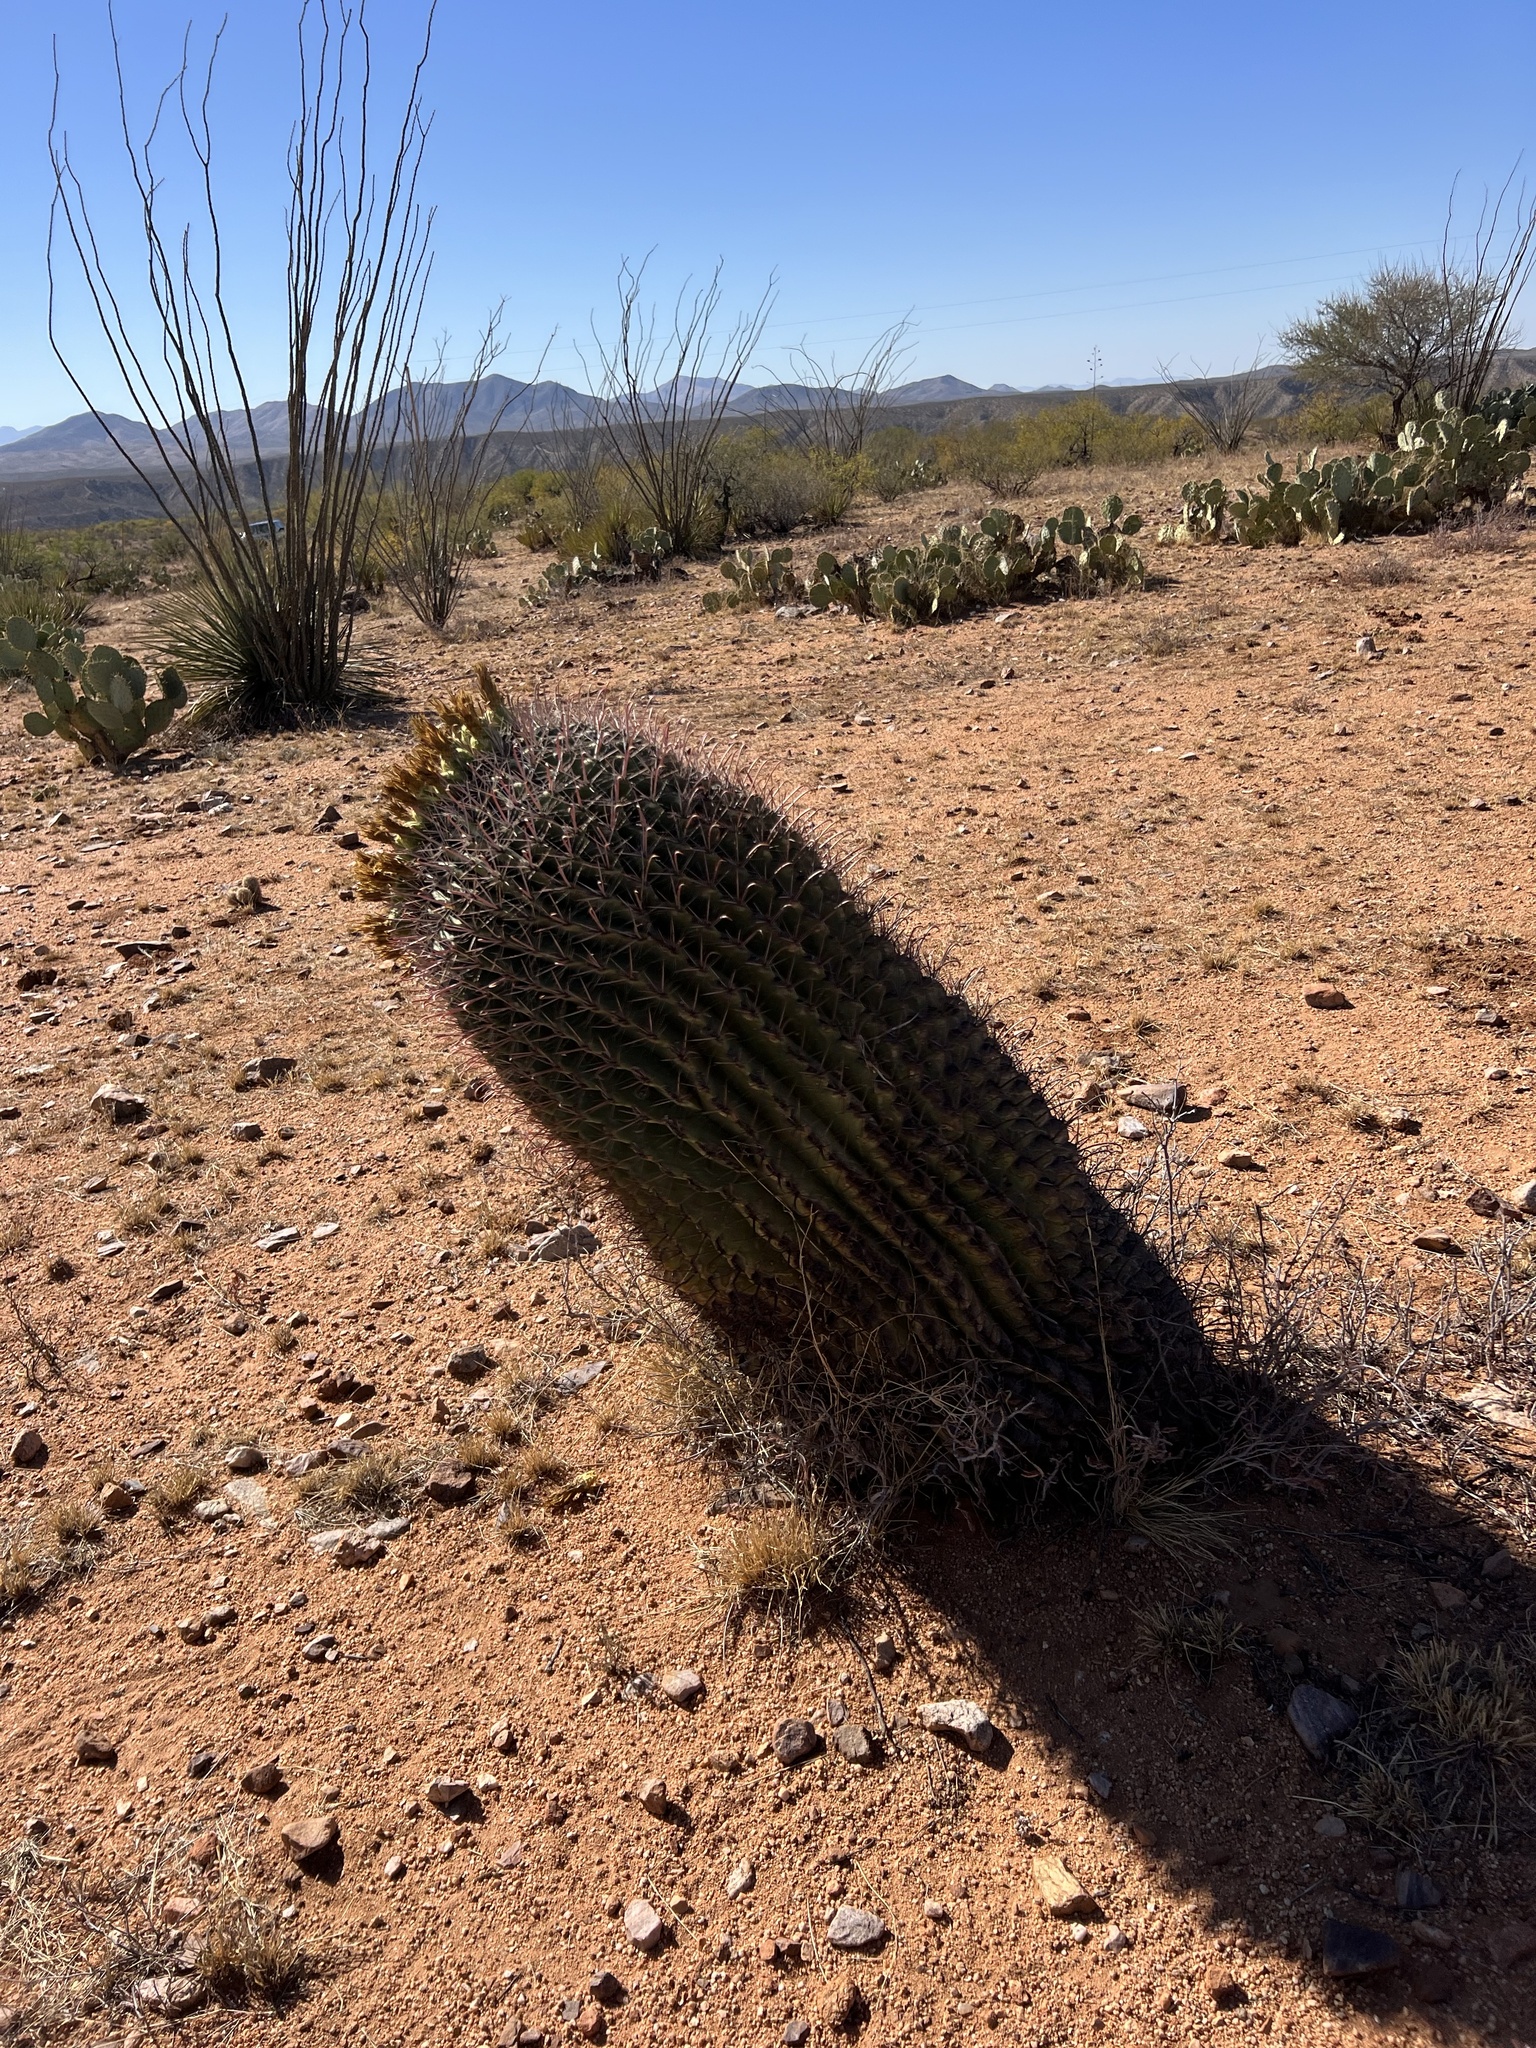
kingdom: Plantae
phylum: Tracheophyta
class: Magnoliopsida
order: Caryophyllales
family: Cactaceae
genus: Ferocactus
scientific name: Ferocactus wislizeni
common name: Candy barrel cactus
